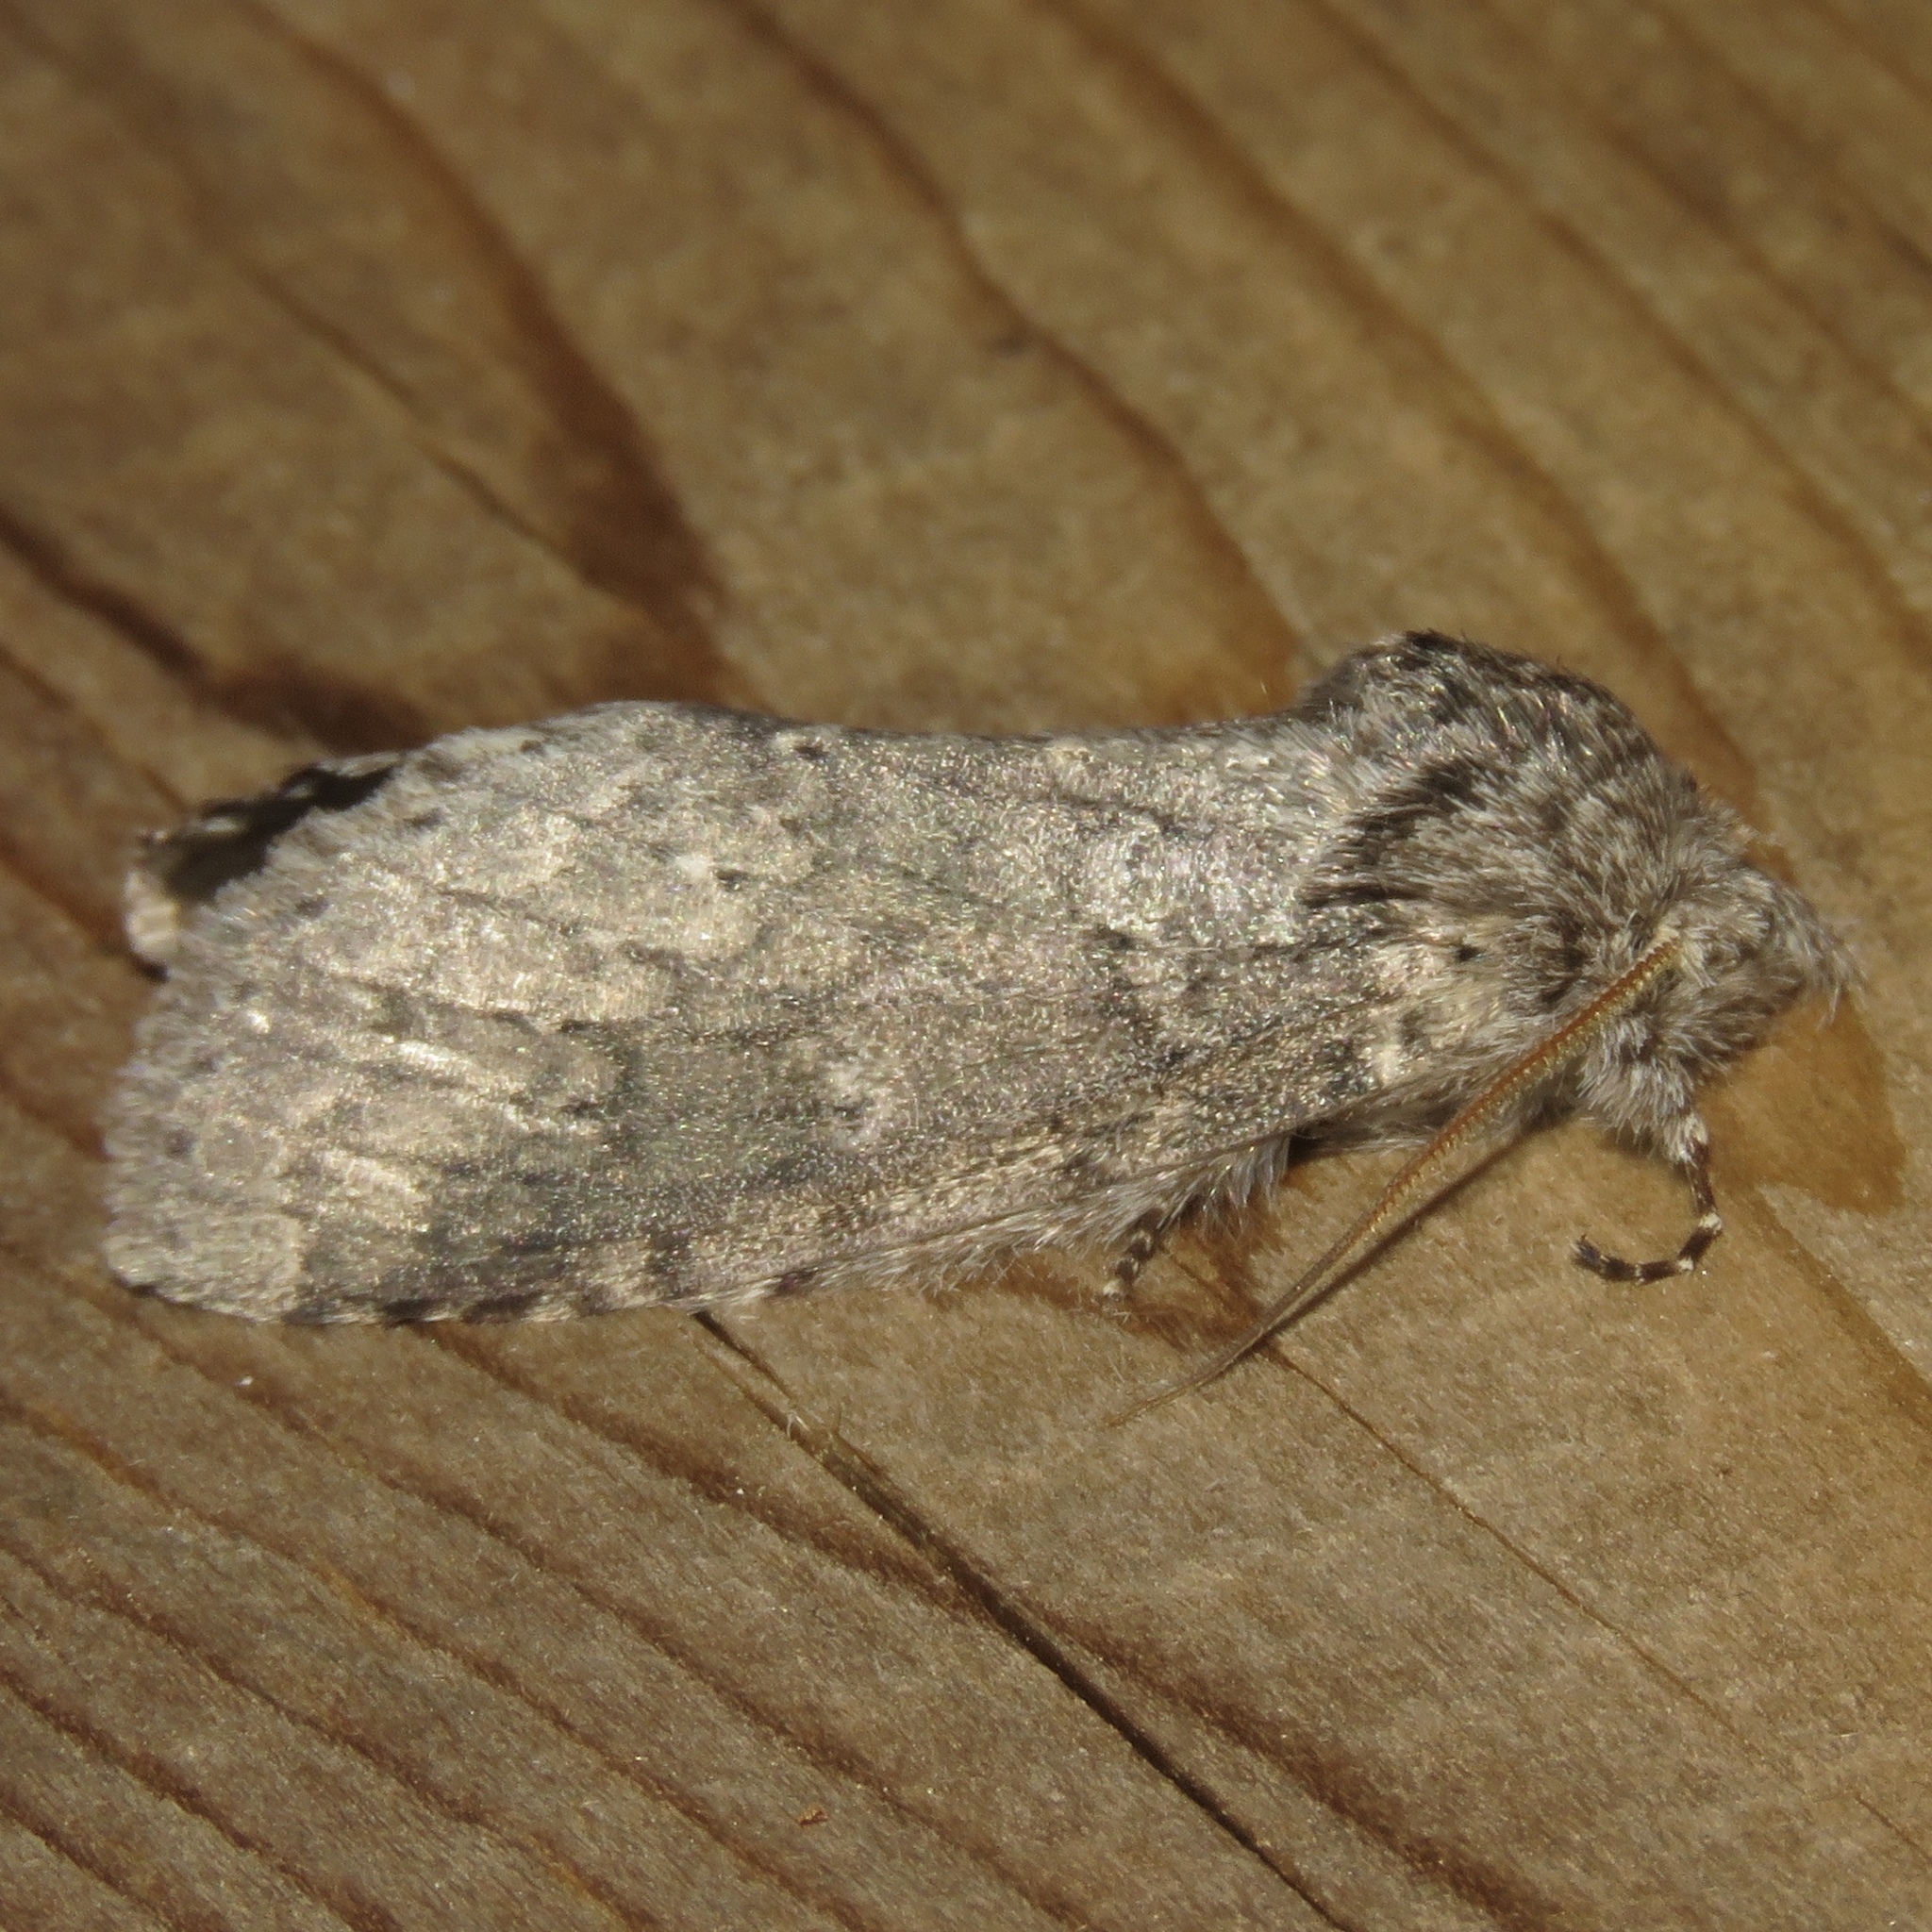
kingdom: Animalia
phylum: Arthropoda
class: Insecta
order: Lepidoptera
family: Notodontidae
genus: Lochmaeus
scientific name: Lochmaeus manteo
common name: Variable oakleaf caterpillar moth
